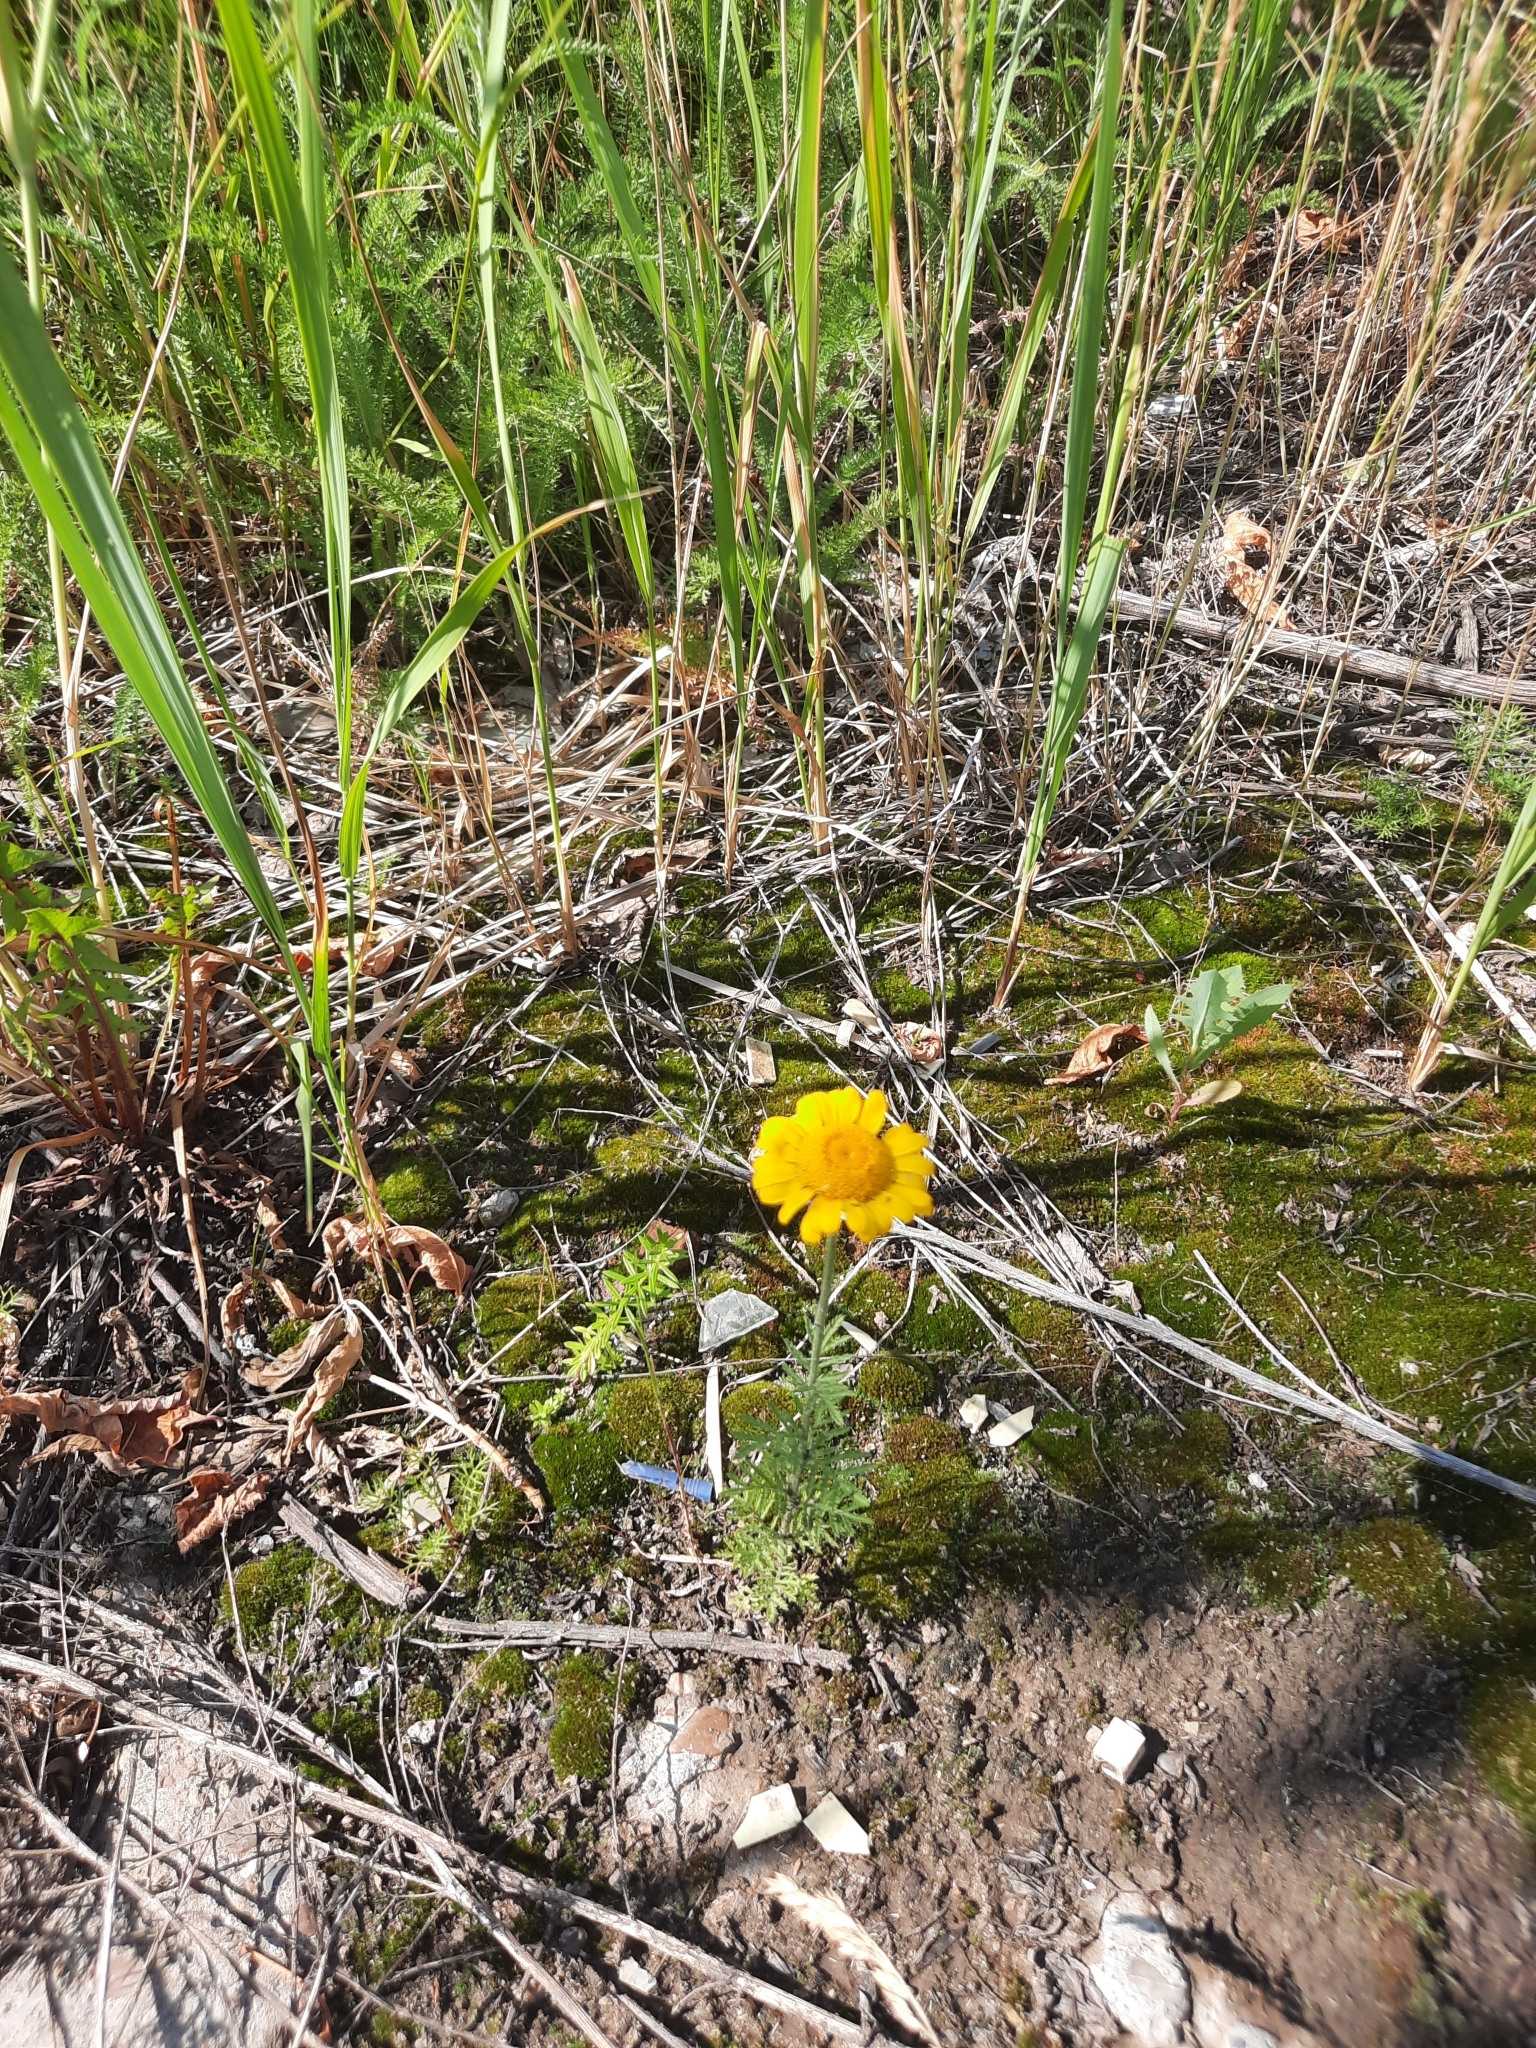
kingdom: Plantae
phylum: Tracheophyta
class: Magnoliopsida
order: Asterales
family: Asteraceae
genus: Cota
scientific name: Cota tinctoria
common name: Golden chamomile
